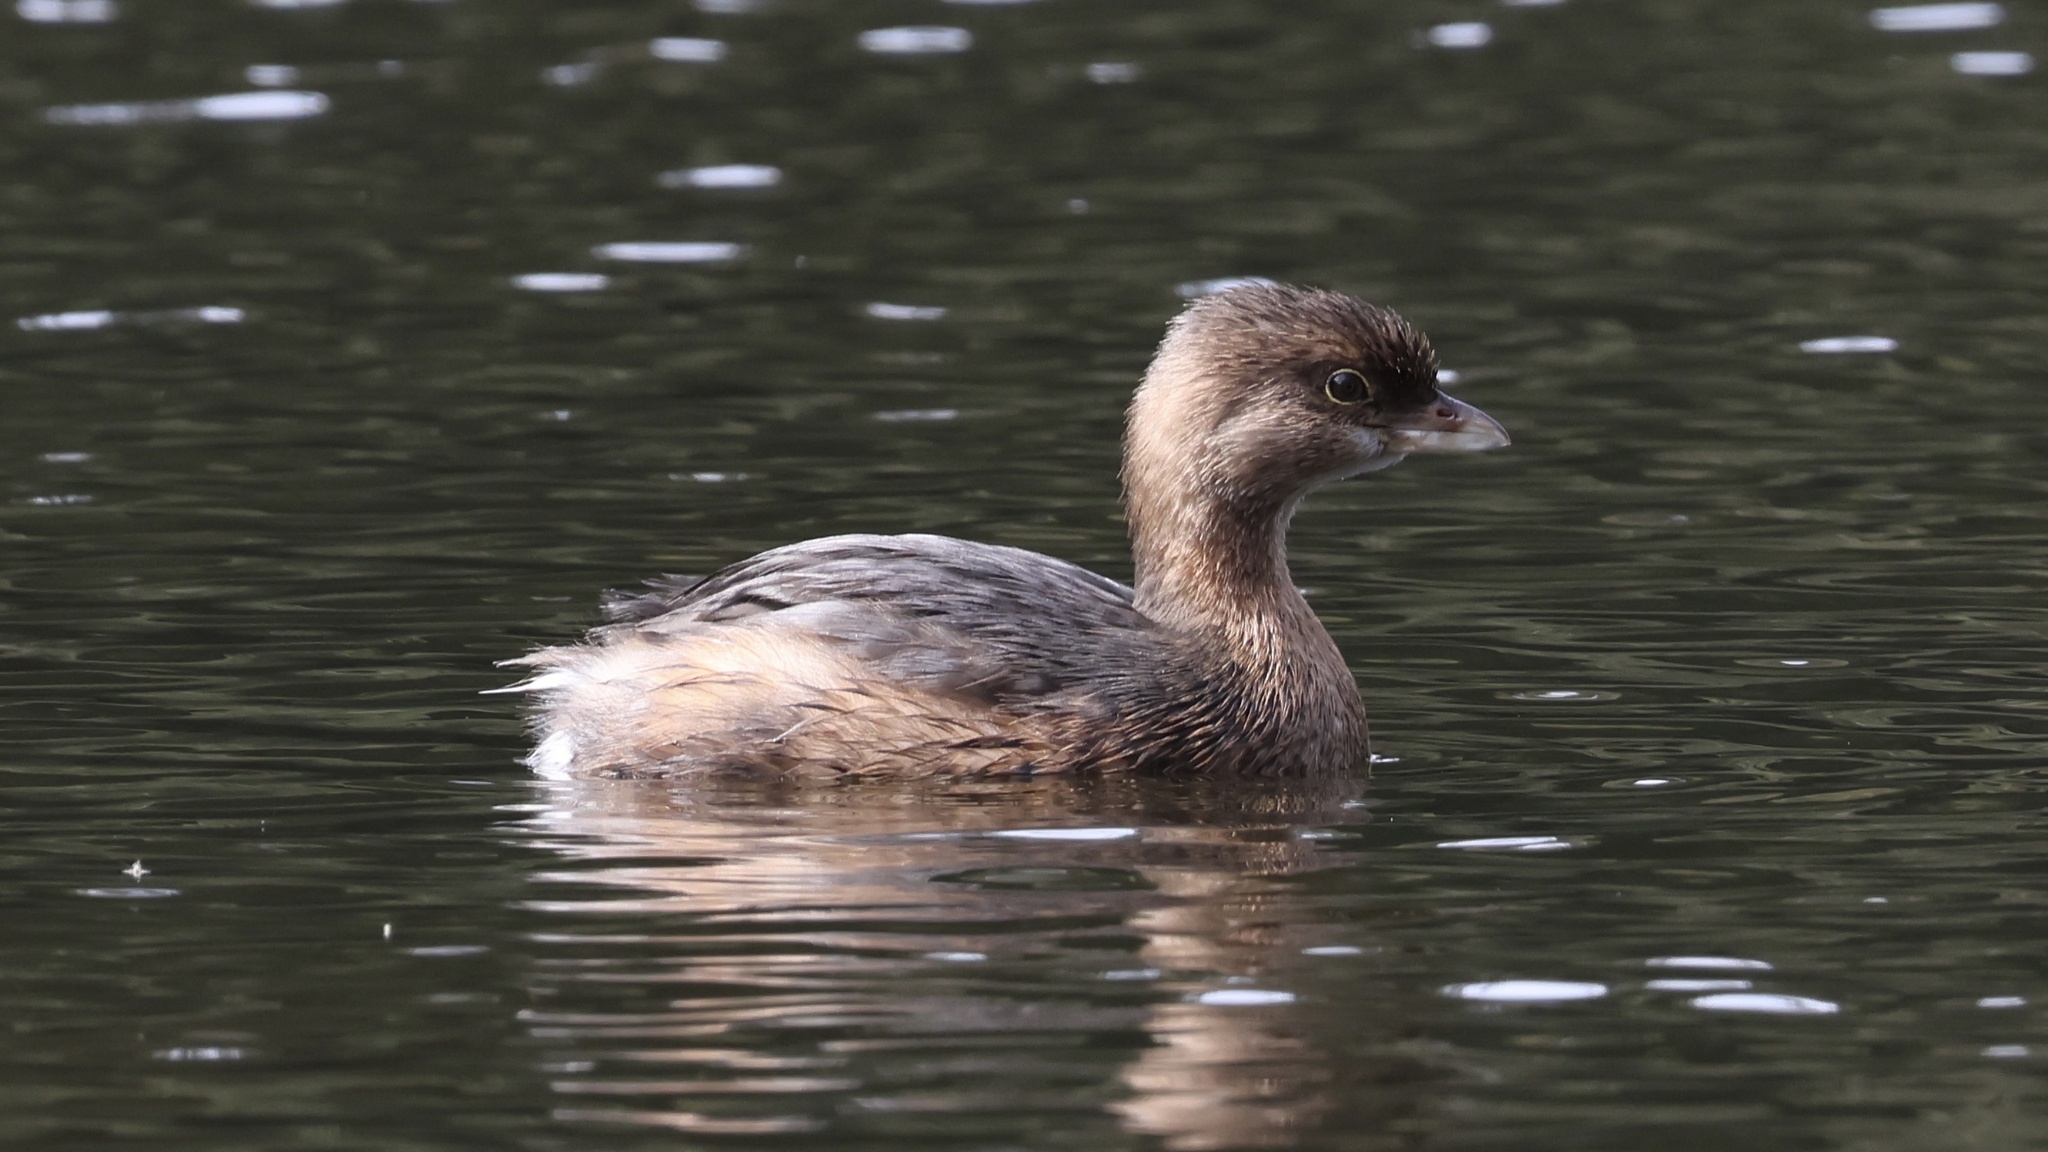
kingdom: Animalia
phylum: Chordata
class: Aves
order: Podicipediformes
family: Podicipedidae
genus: Podilymbus
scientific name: Podilymbus podiceps
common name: Pied-billed grebe
